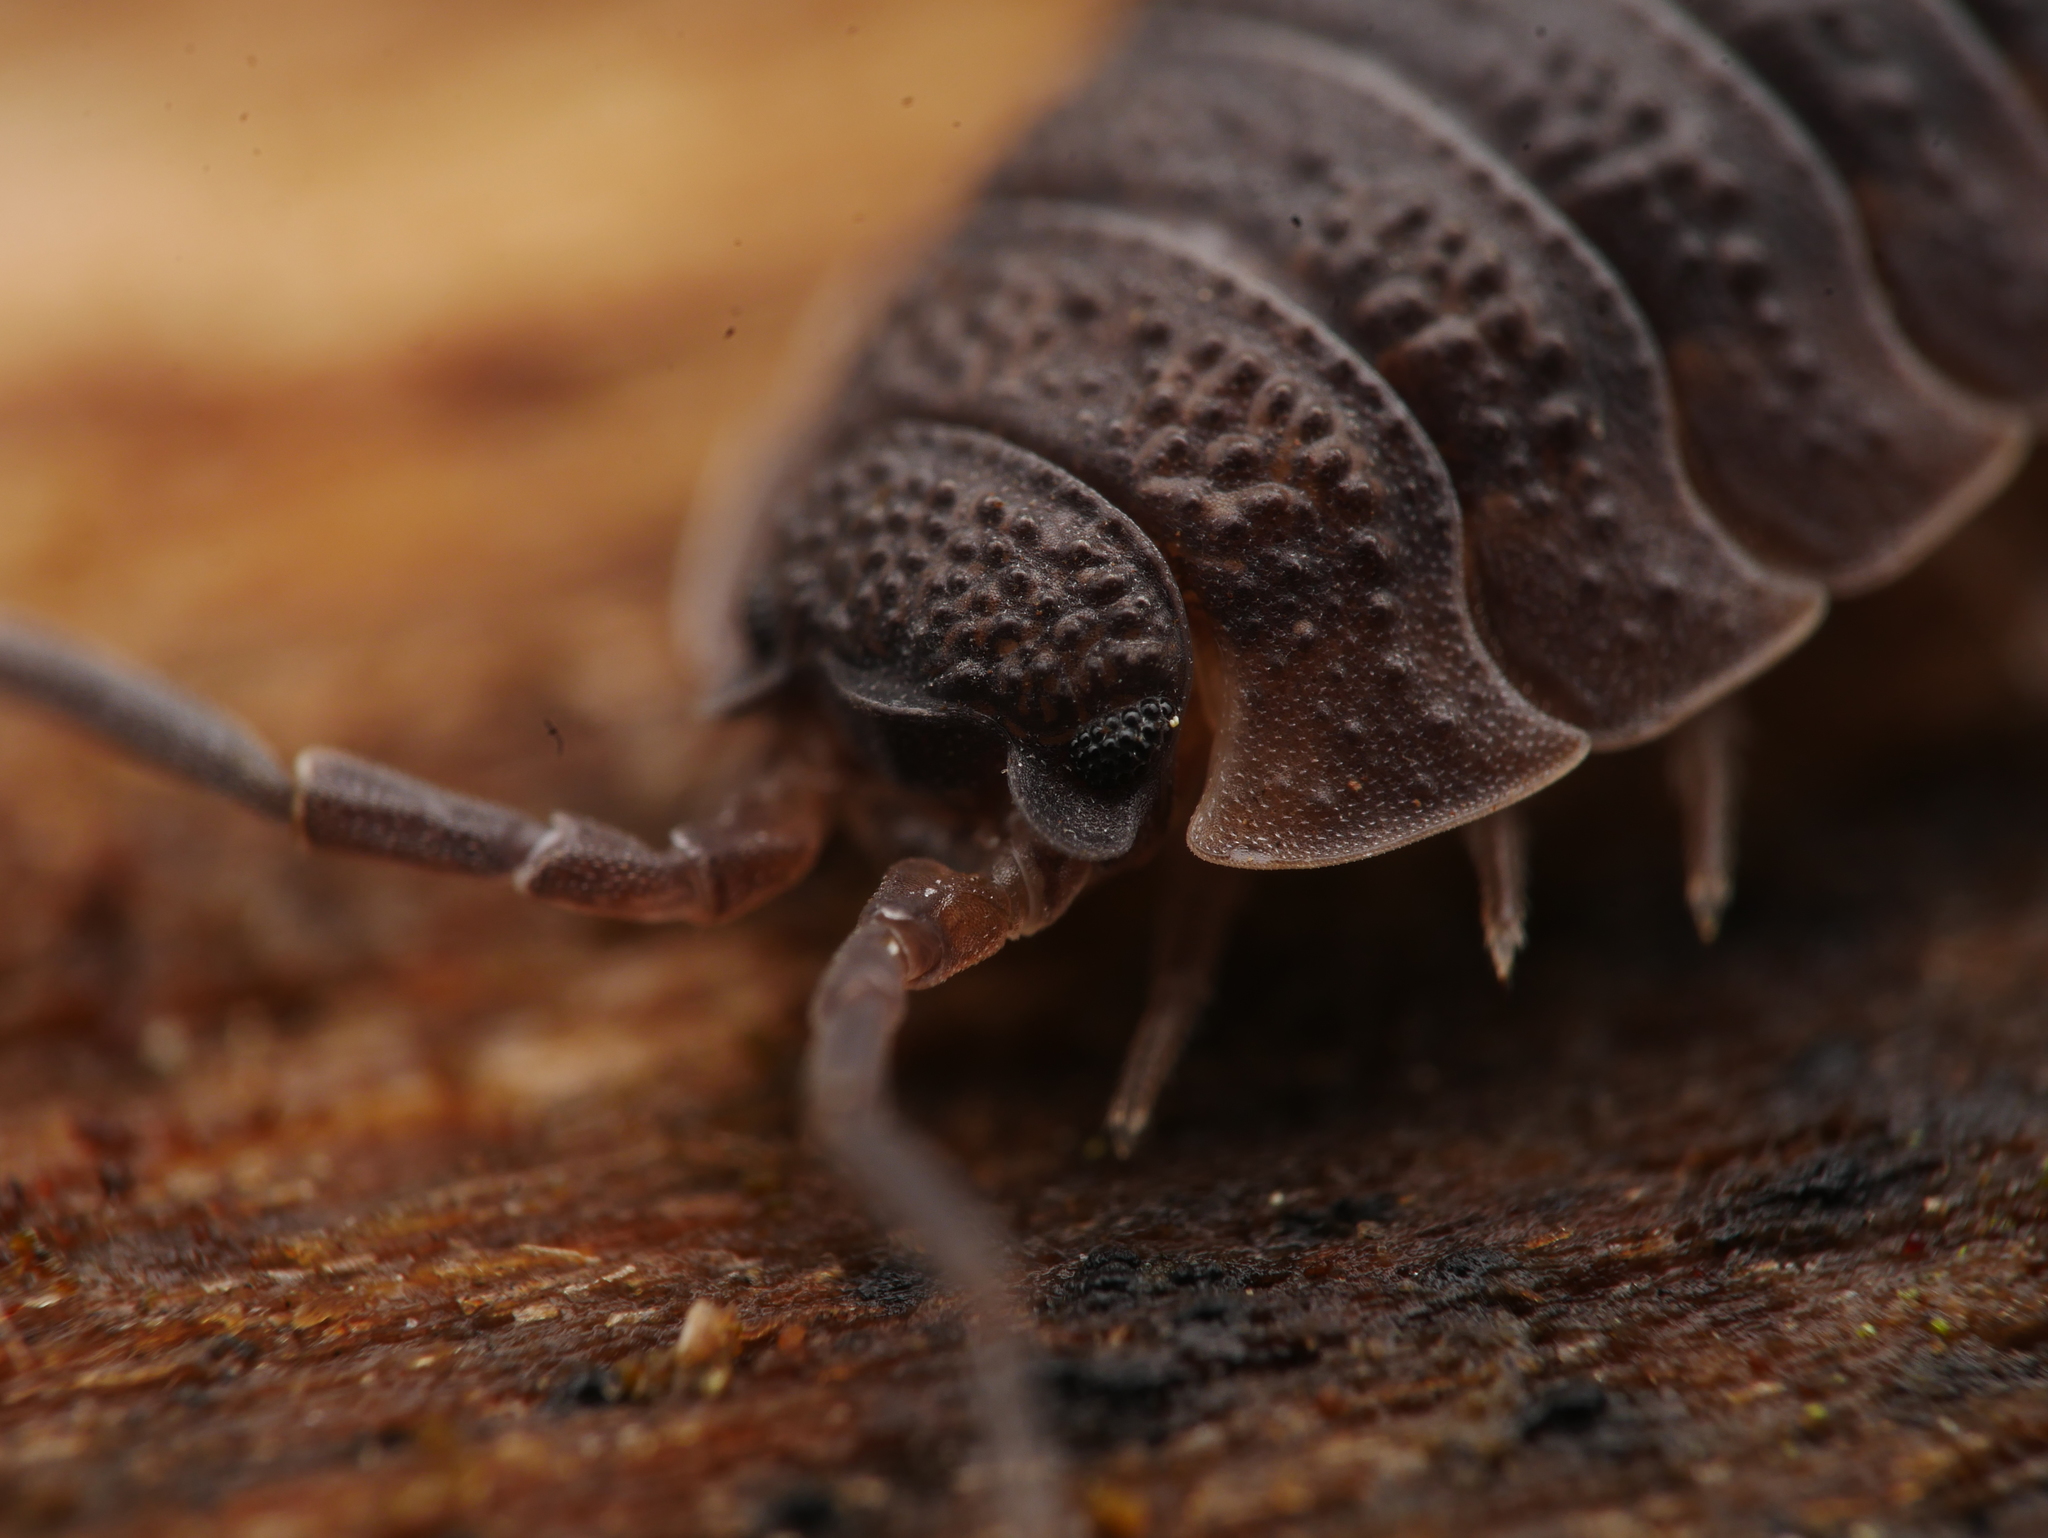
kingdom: Animalia
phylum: Arthropoda
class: Malacostraca
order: Isopoda
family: Porcellionidae
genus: Porcellio
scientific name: Porcellio scaber
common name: Common rough woodlouse
